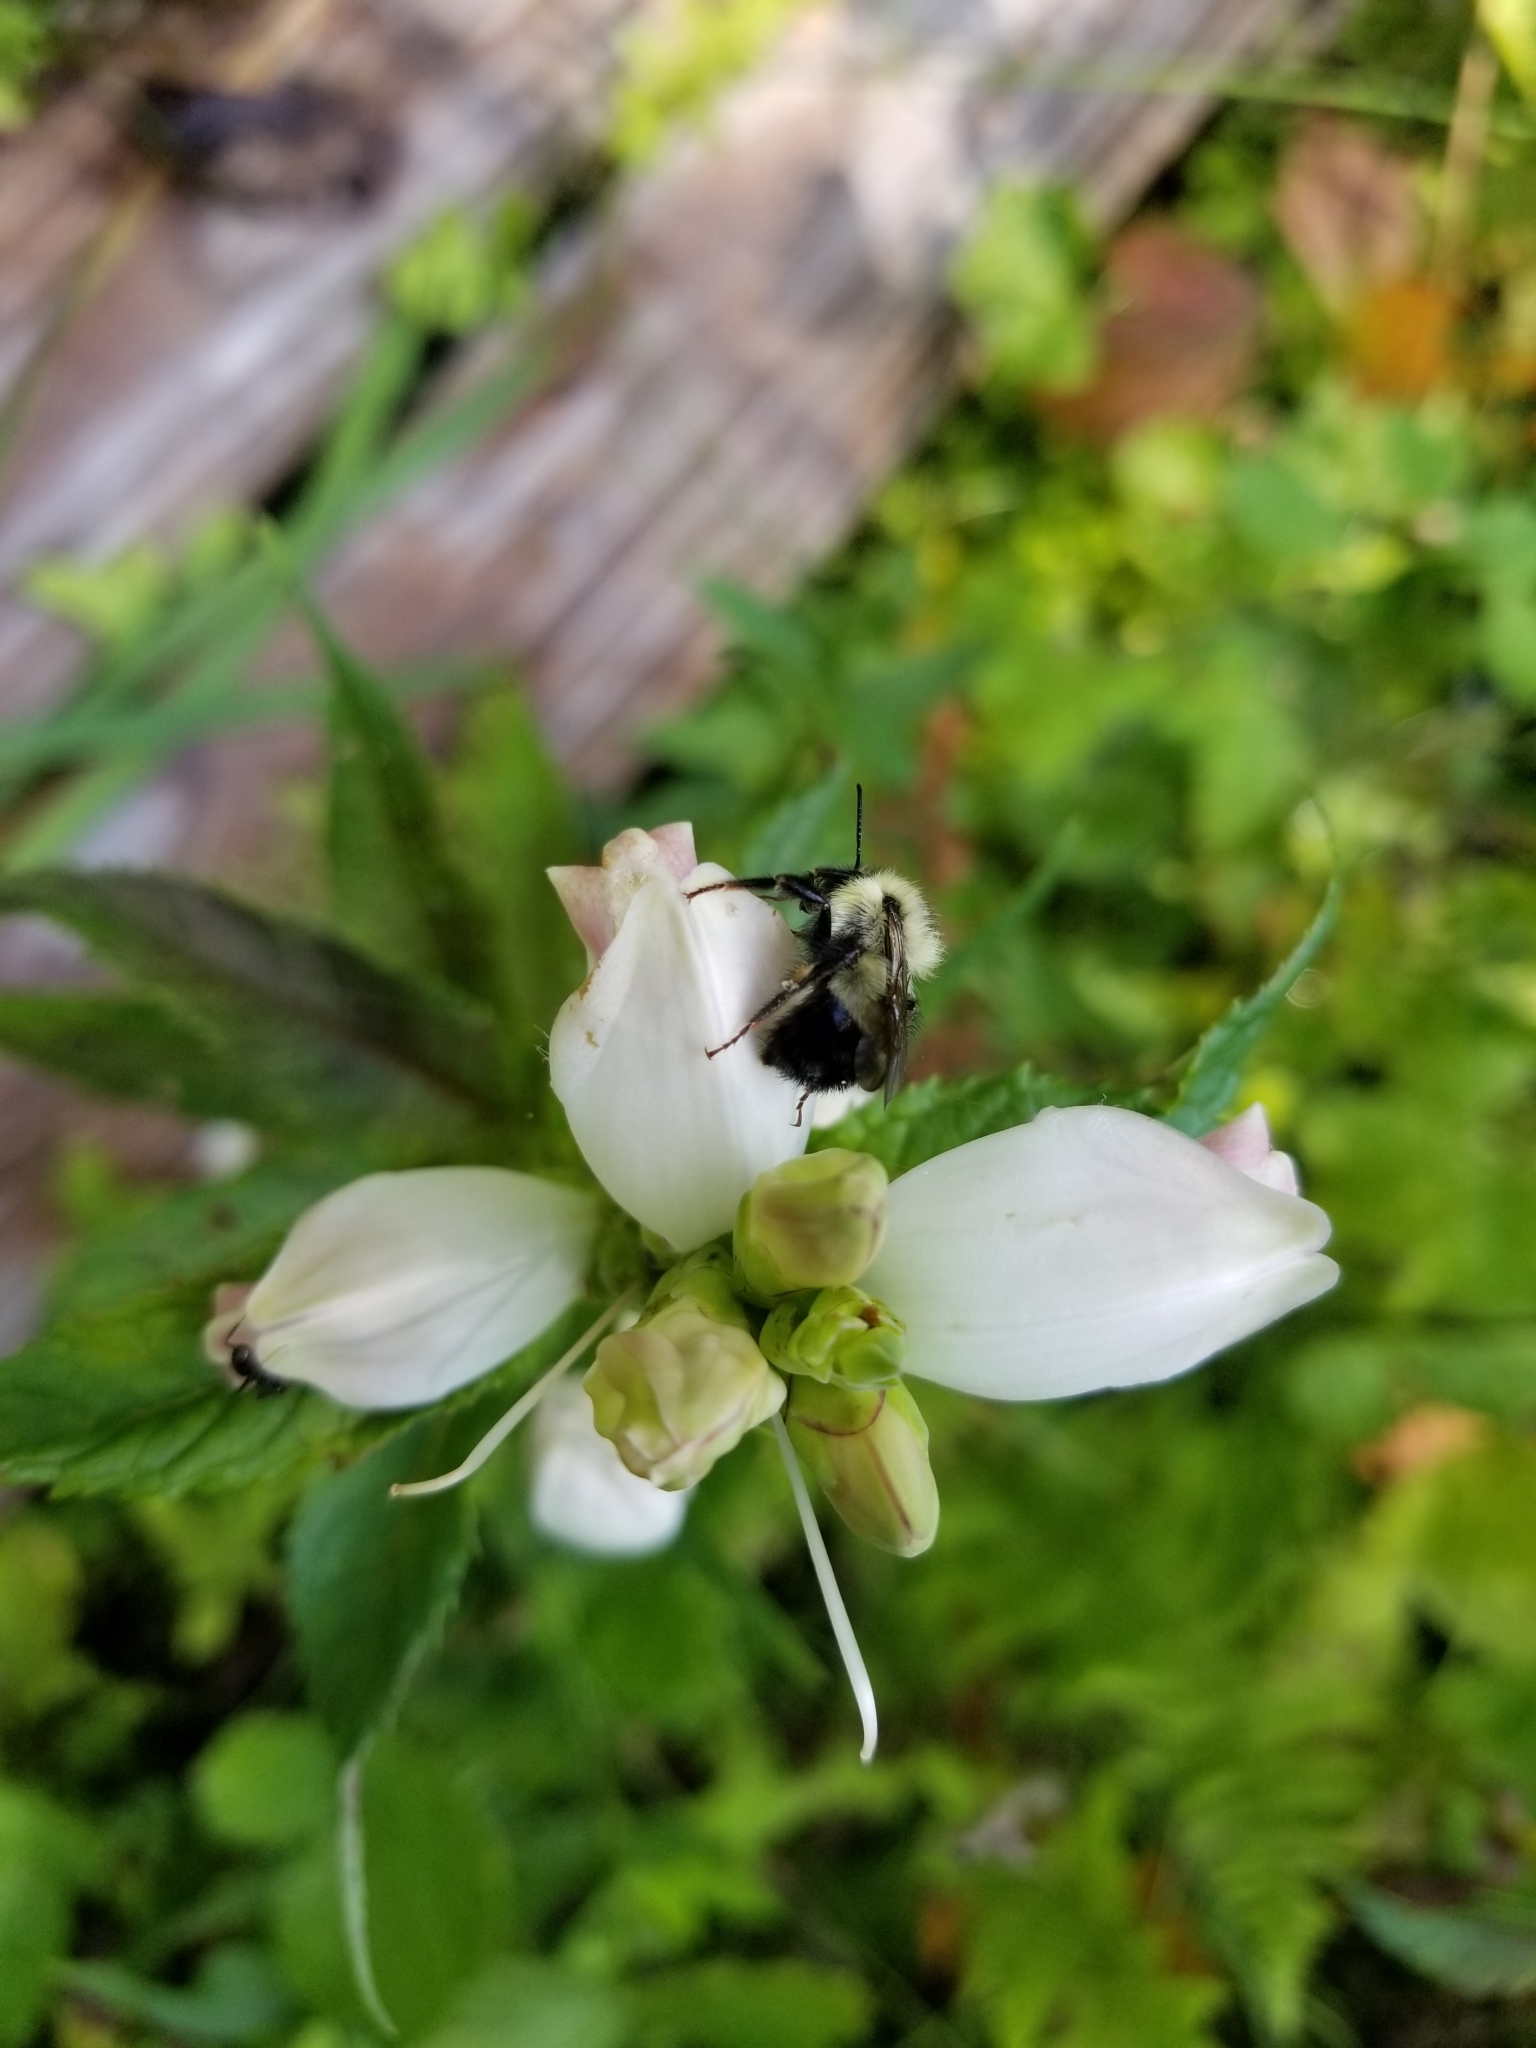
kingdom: Plantae
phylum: Tracheophyta
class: Magnoliopsida
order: Lamiales
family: Plantaginaceae
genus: Chelone
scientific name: Chelone glabra
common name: Snakehead
